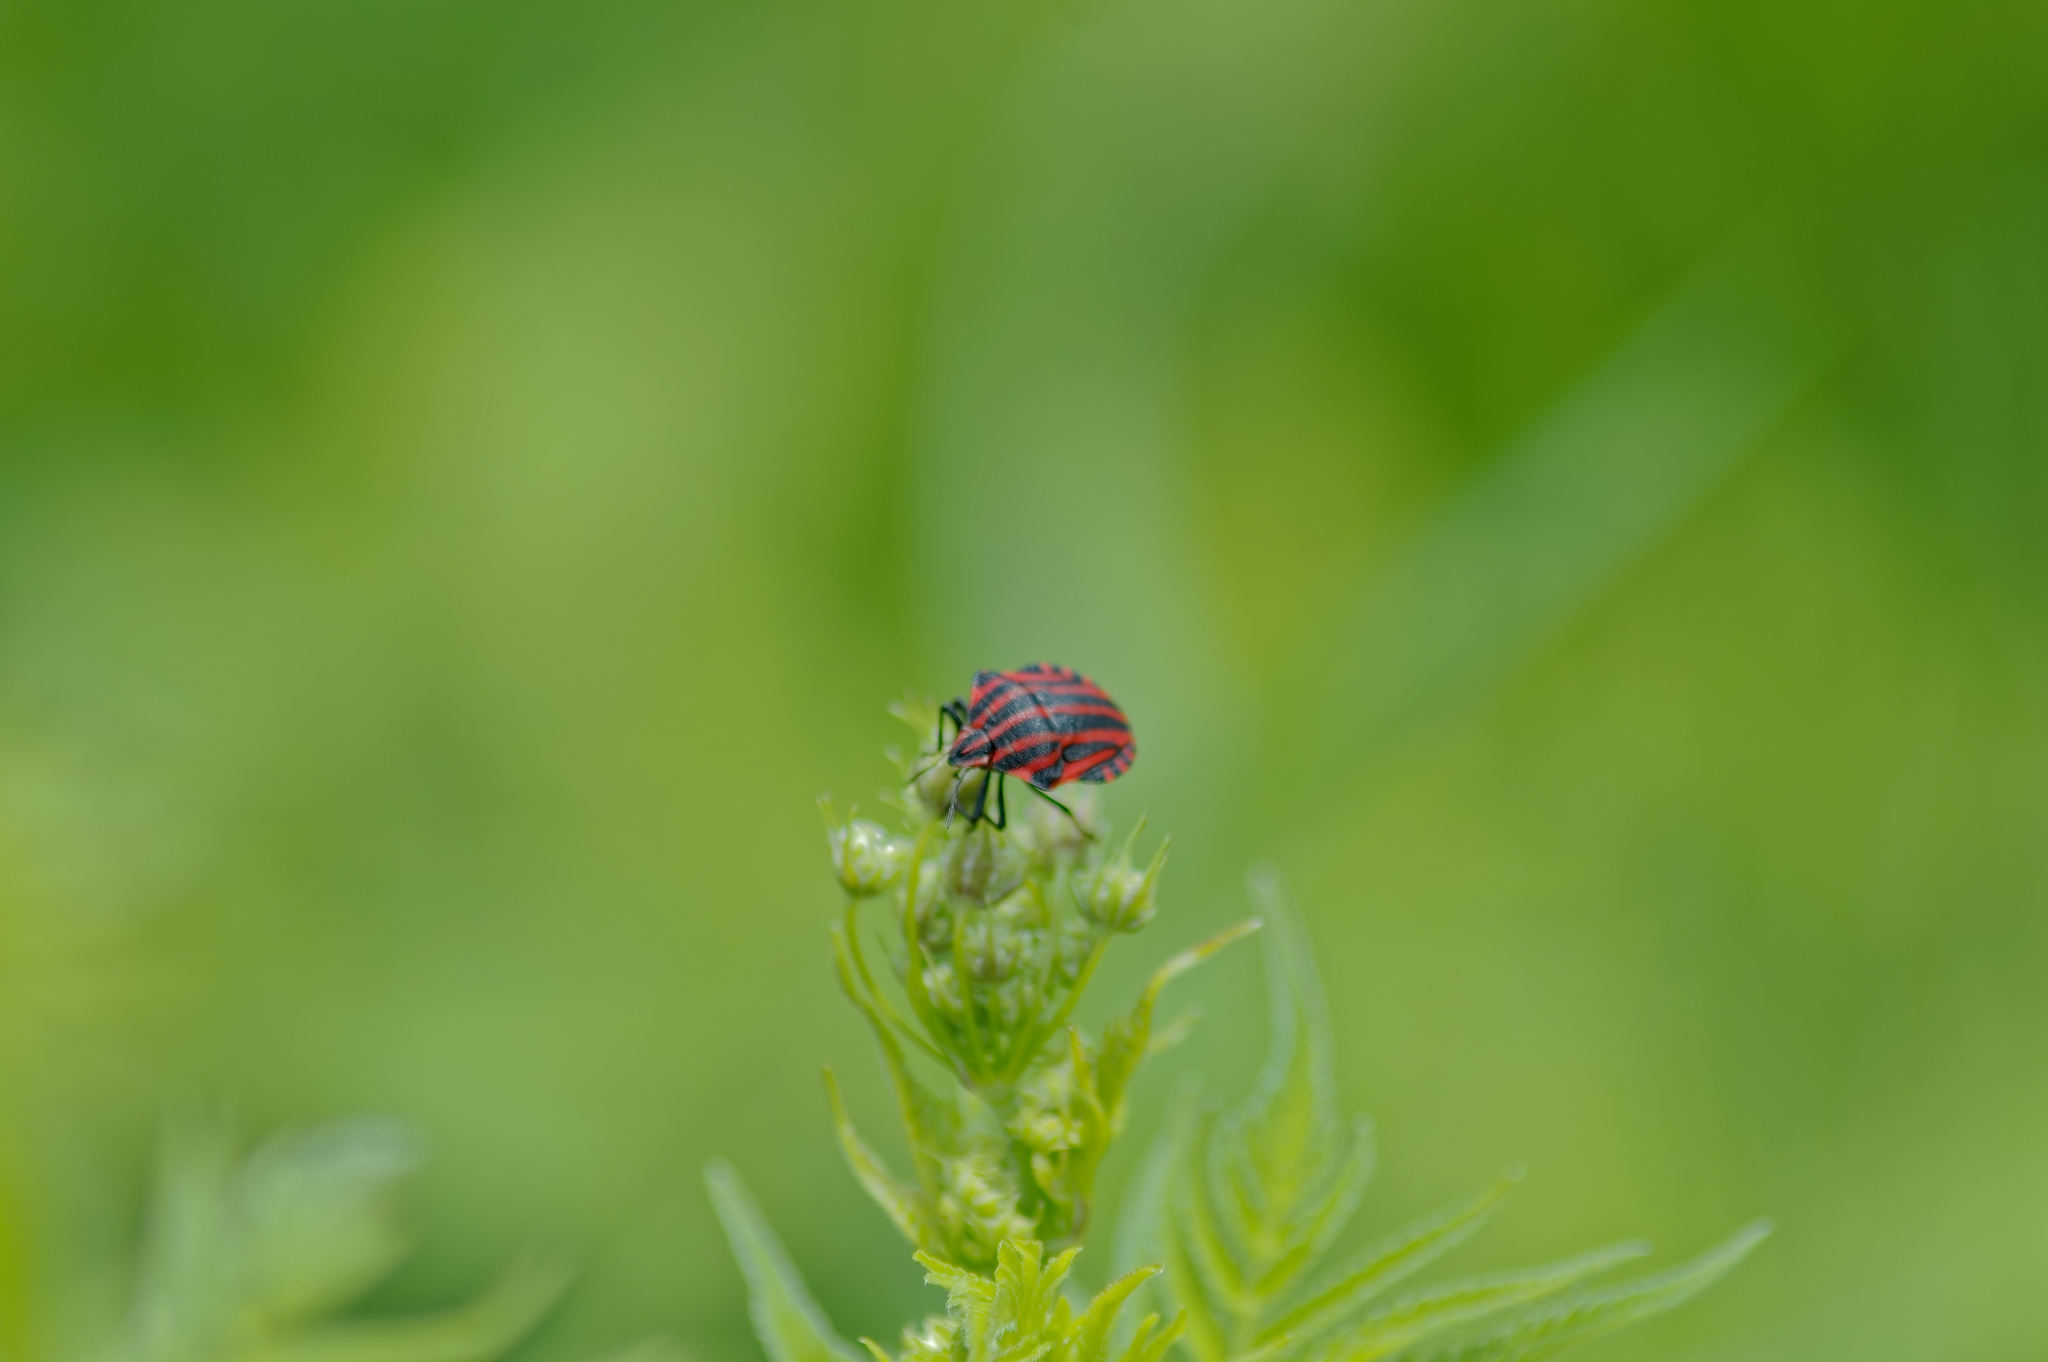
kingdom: Animalia
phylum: Arthropoda
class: Insecta
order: Hemiptera
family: Pentatomidae
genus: Graphosoma
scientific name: Graphosoma italicum
